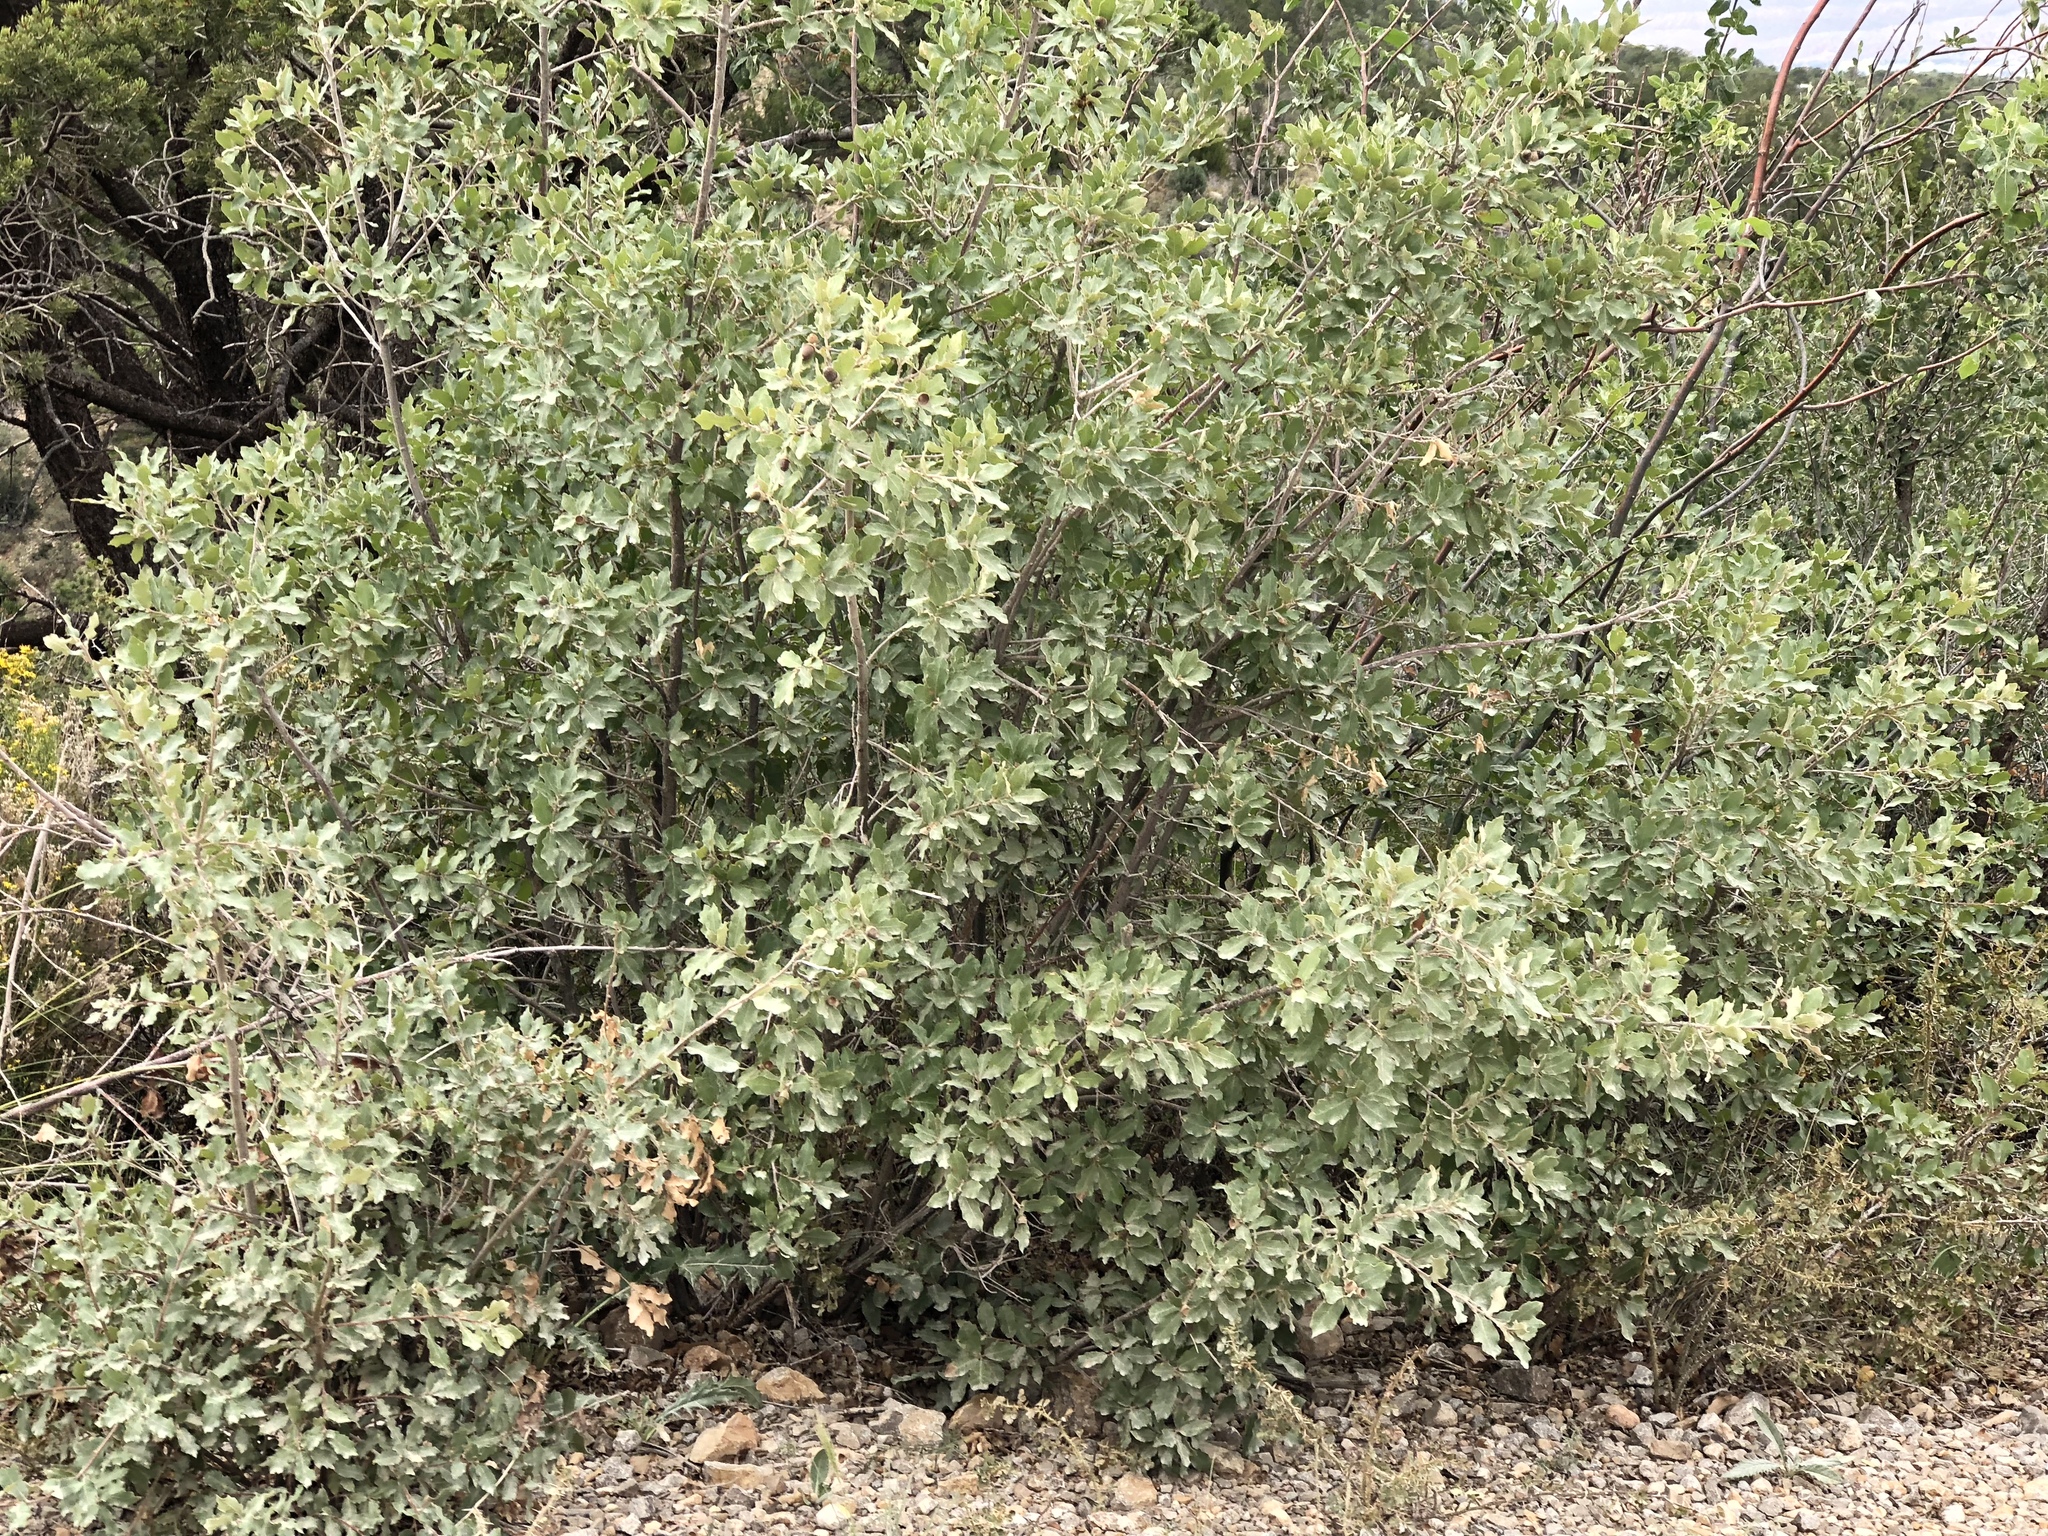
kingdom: Plantae
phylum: Tracheophyta
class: Magnoliopsida
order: Fagales
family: Fagaceae
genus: Quercus
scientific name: Quercus undulata
